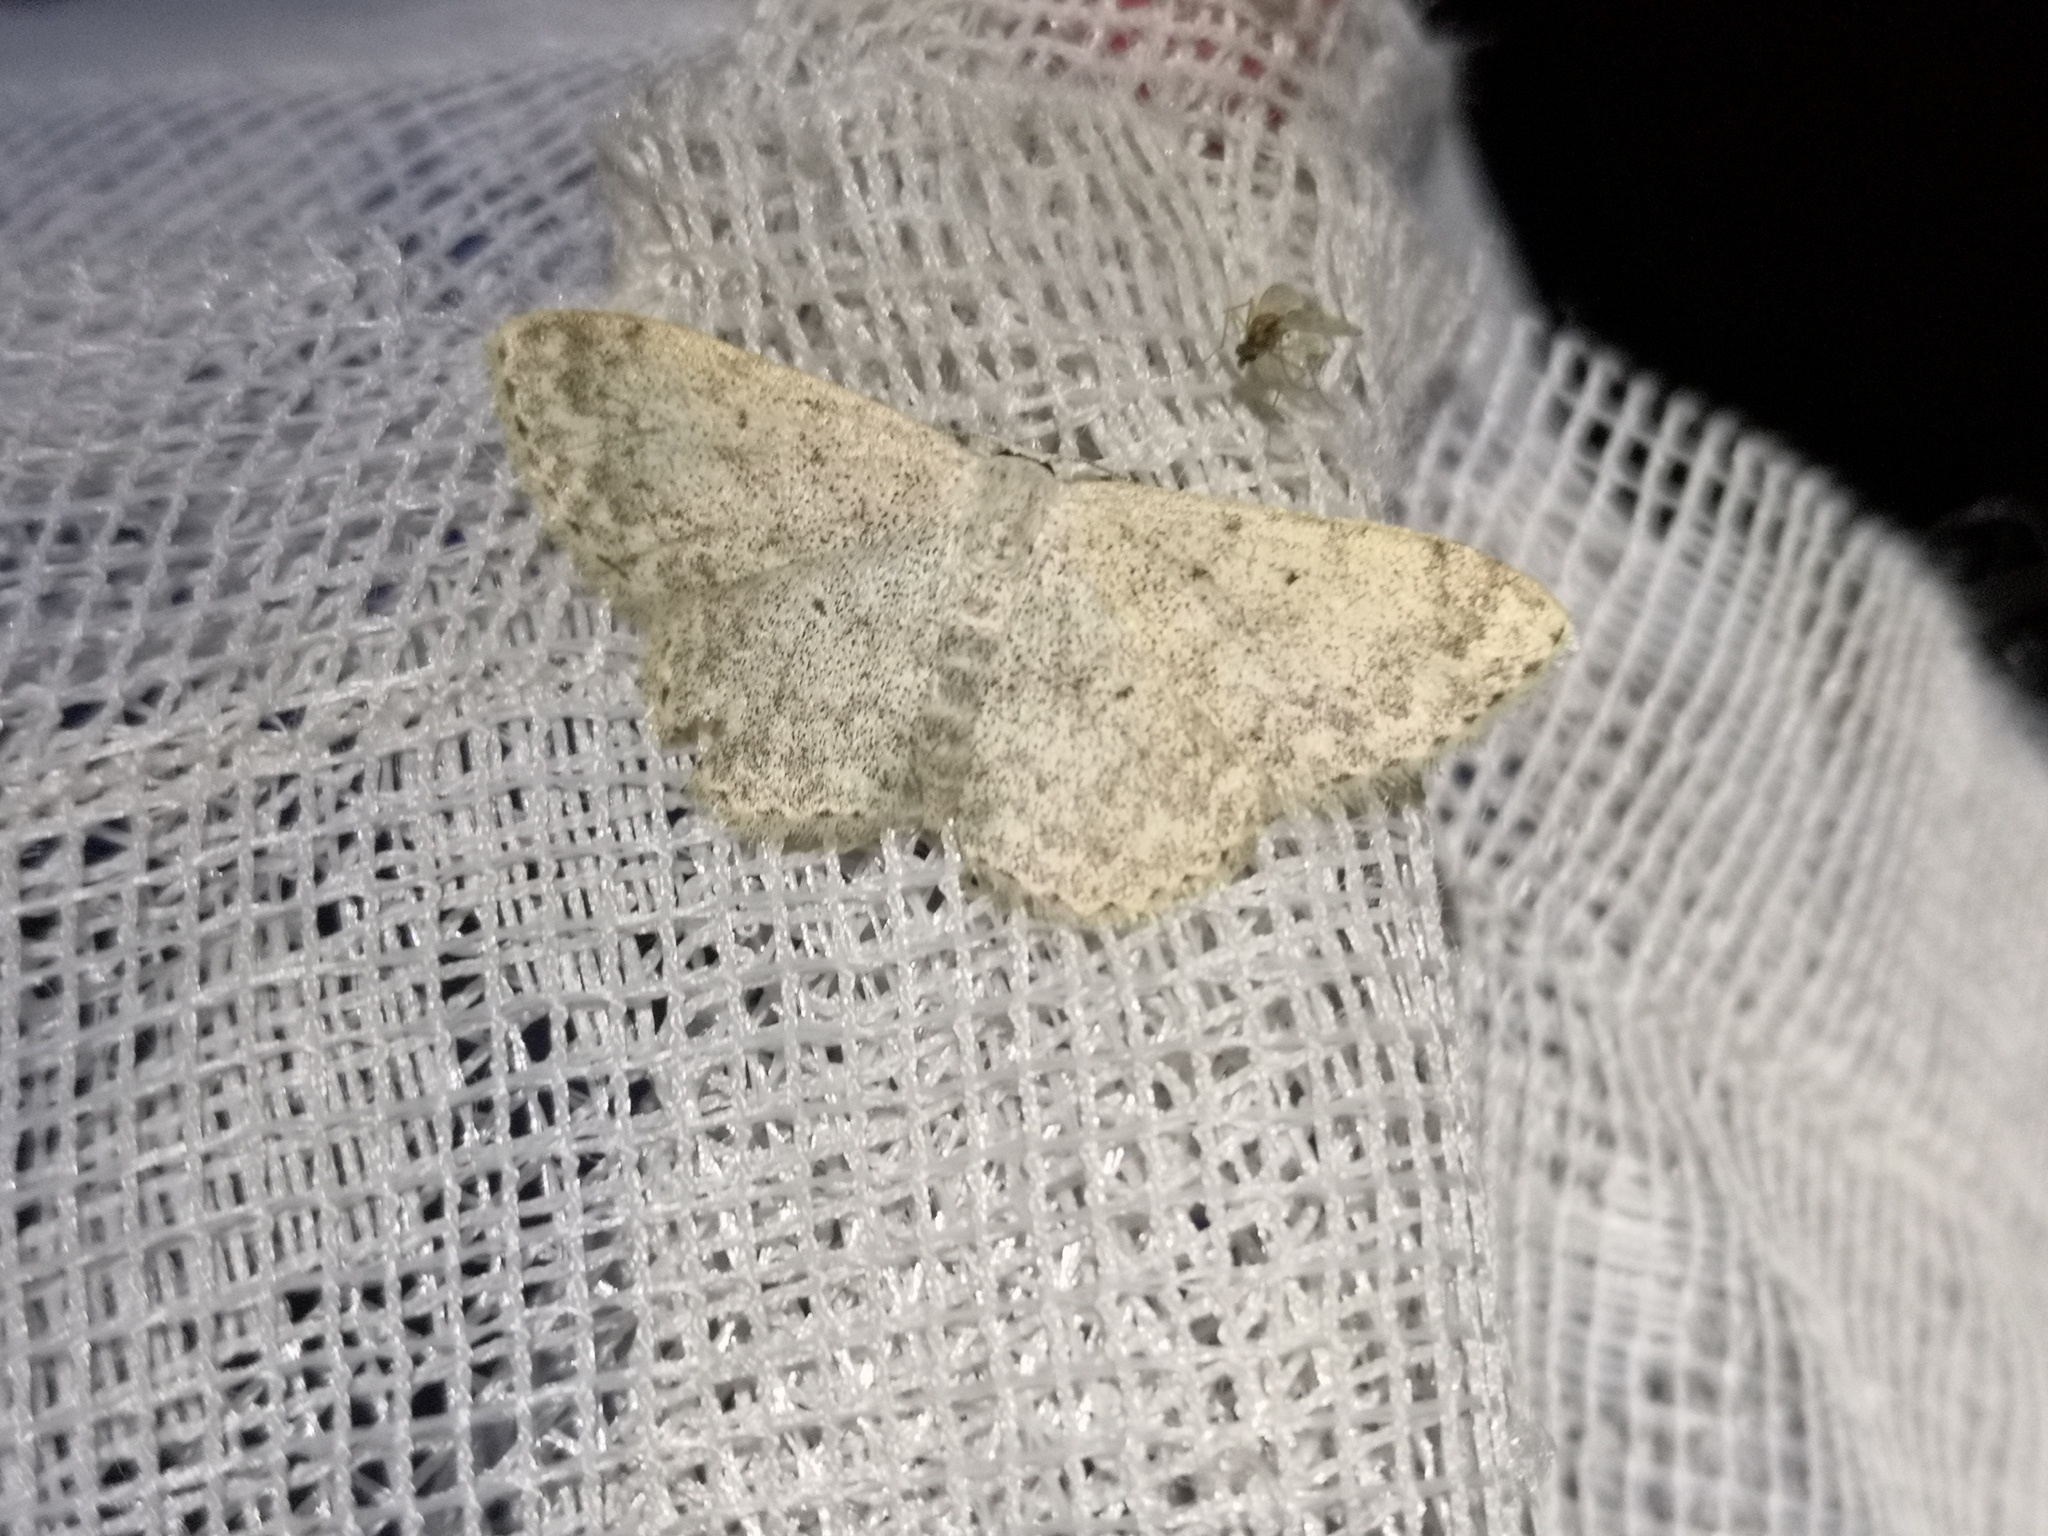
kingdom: Animalia
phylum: Arthropoda
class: Insecta
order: Lepidoptera
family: Geometridae
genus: Scopula
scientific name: Scopula marginepunctata
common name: Mullein wave
